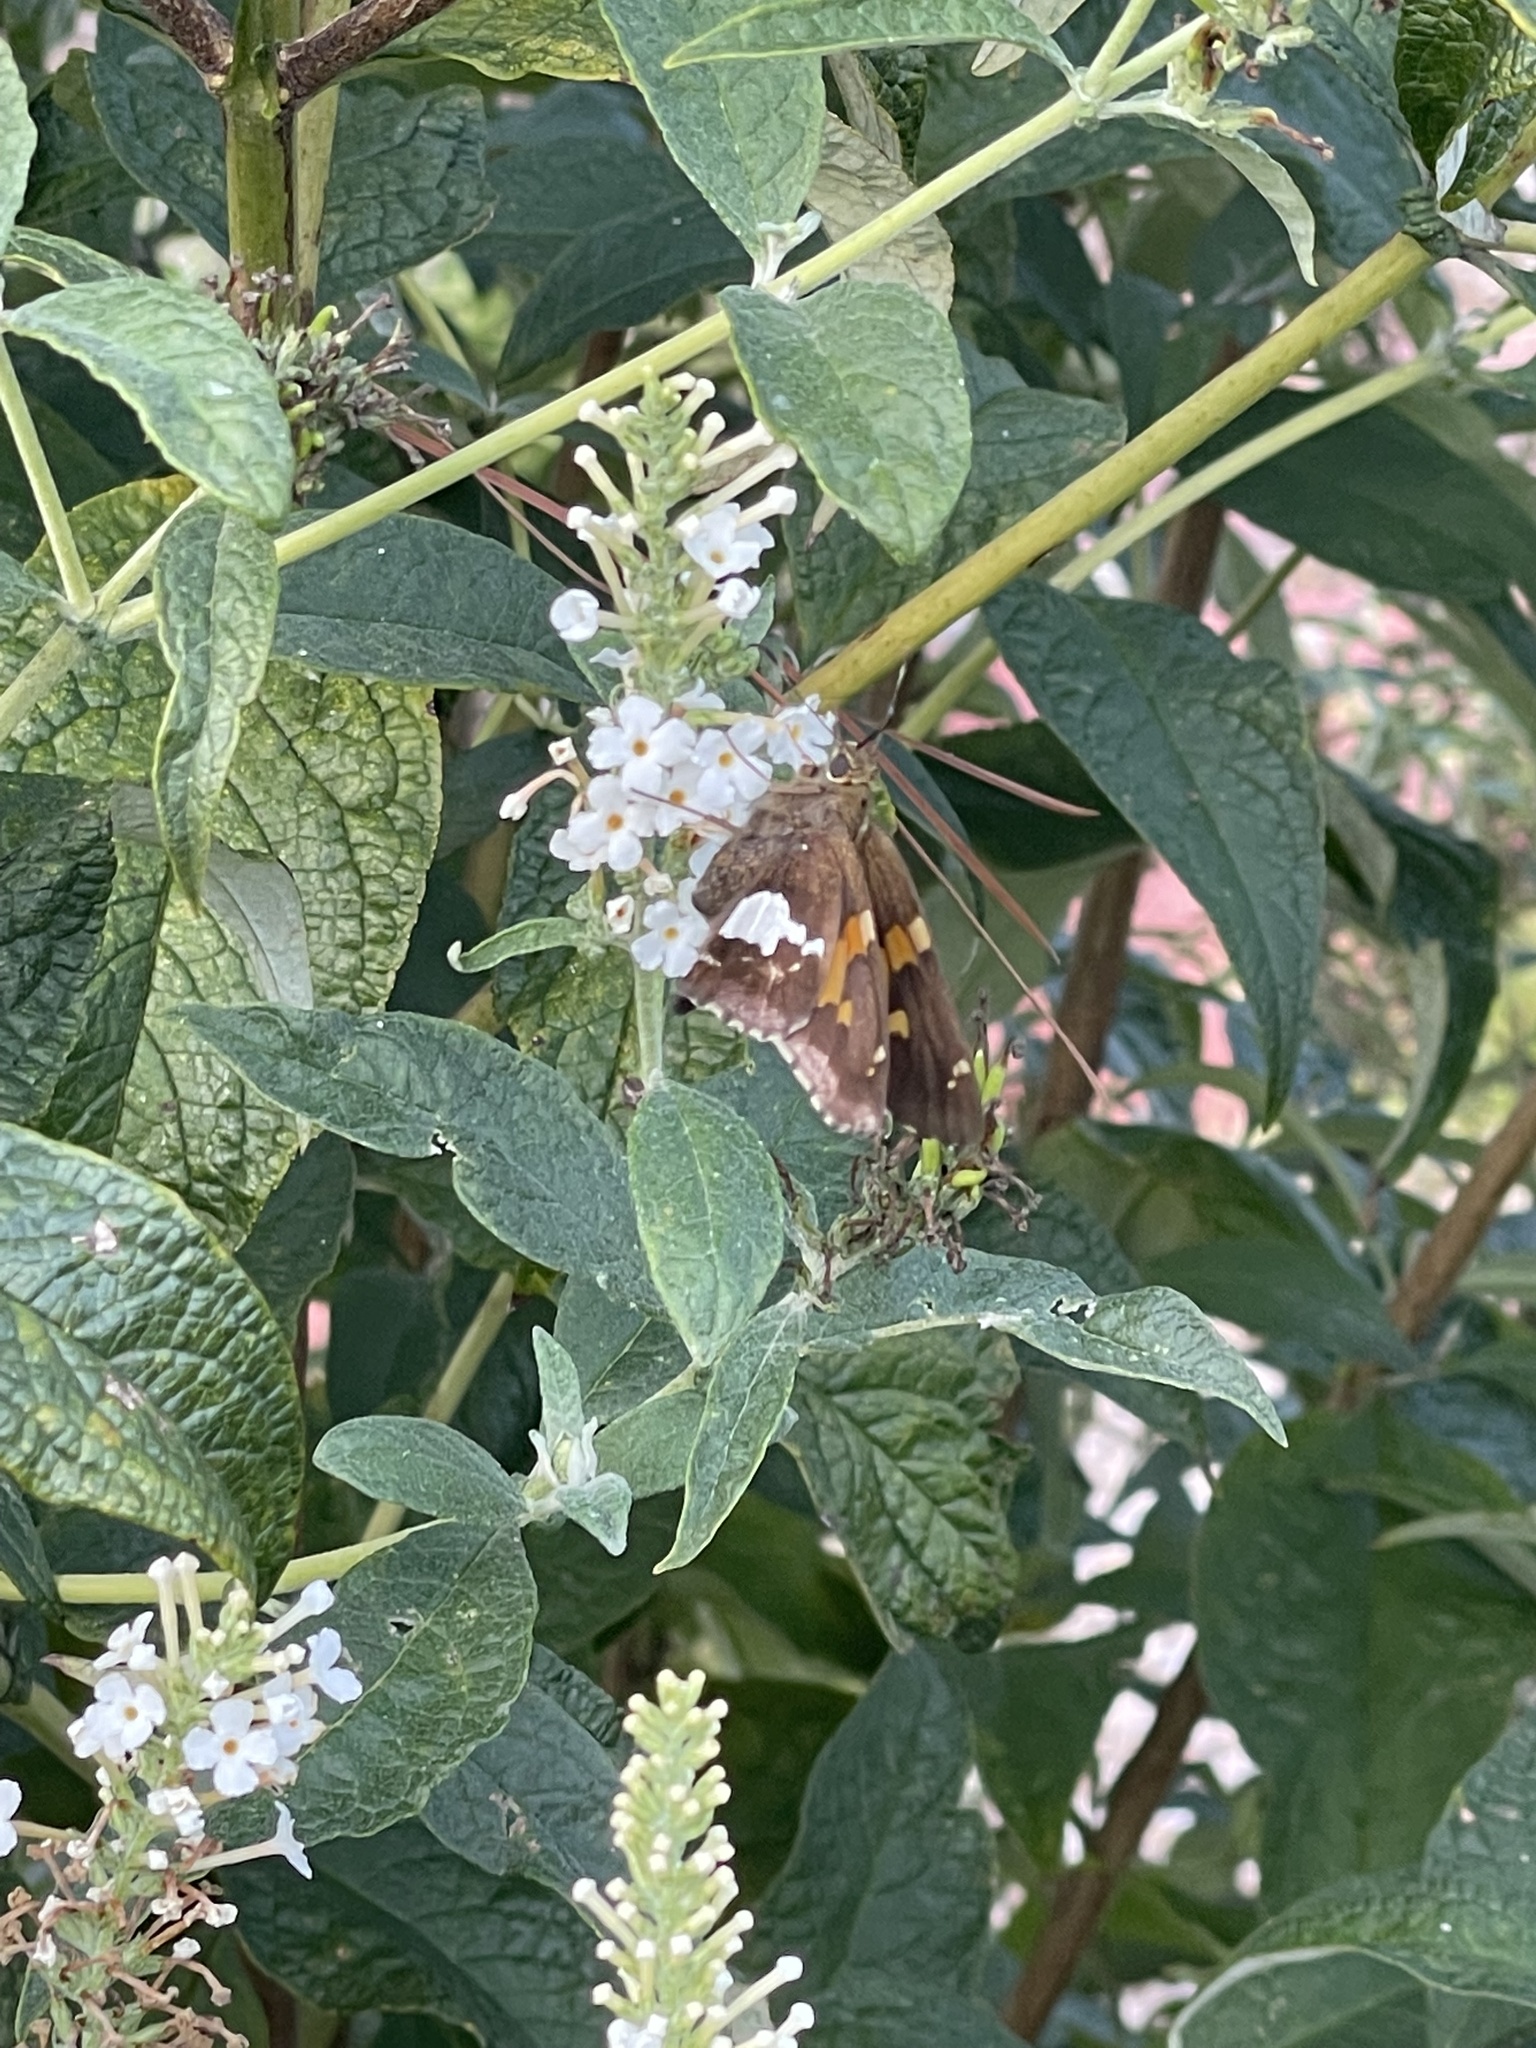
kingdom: Animalia
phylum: Arthropoda
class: Insecta
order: Lepidoptera
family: Hesperiidae
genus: Epargyreus
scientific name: Epargyreus clarus
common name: Silver-spotted skipper
